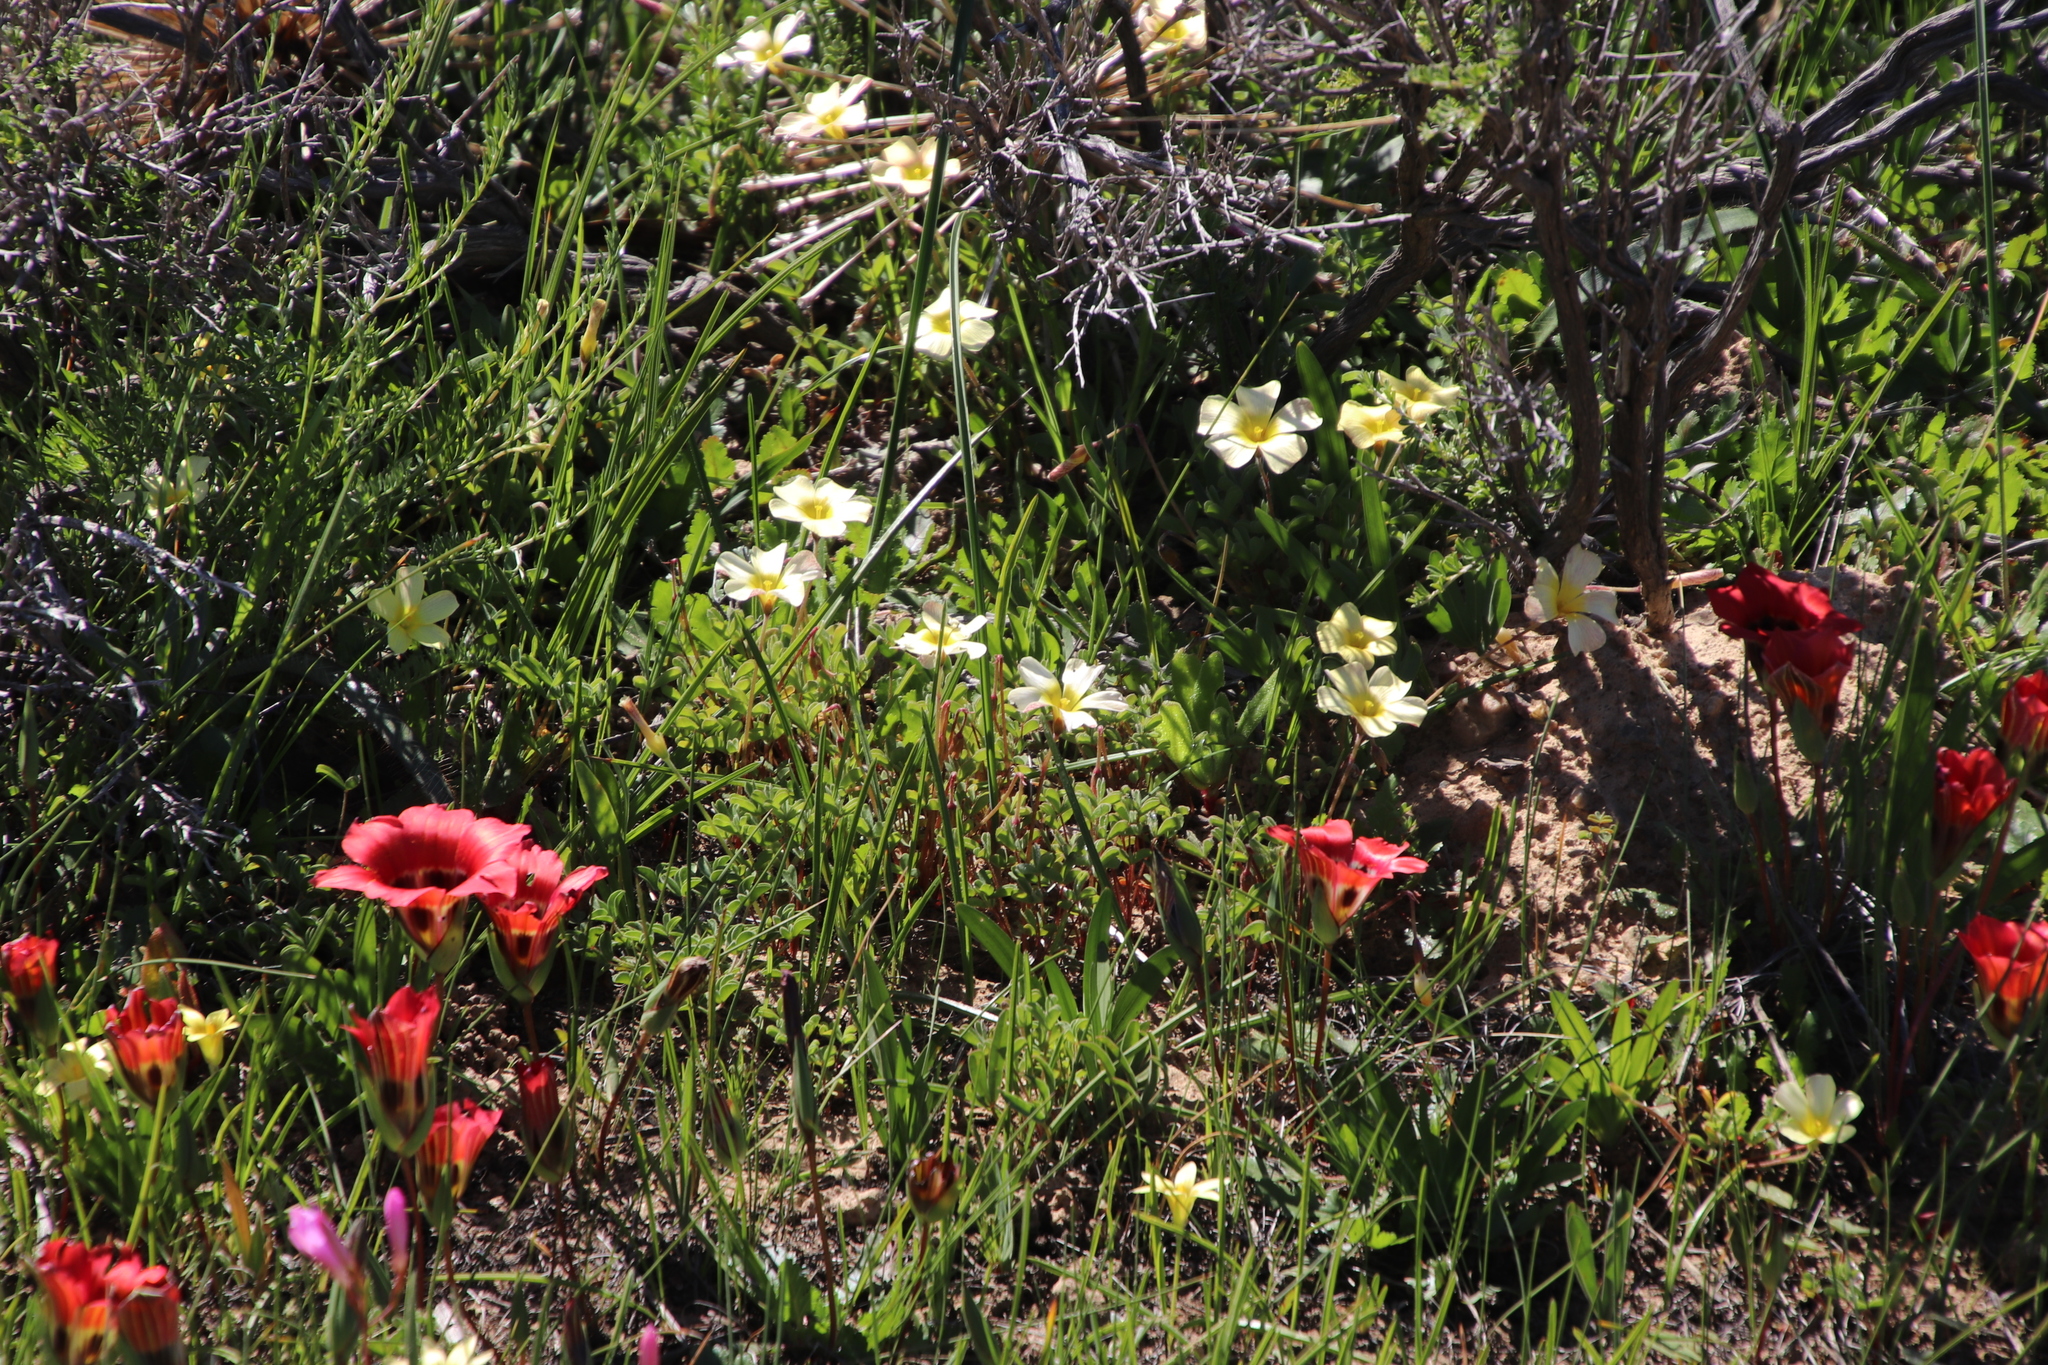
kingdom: Plantae
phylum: Tracheophyta
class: Magnoliopsida
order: Oxalidales
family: Oxalidaceae
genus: Oxalis
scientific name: Oxalis obtusa
